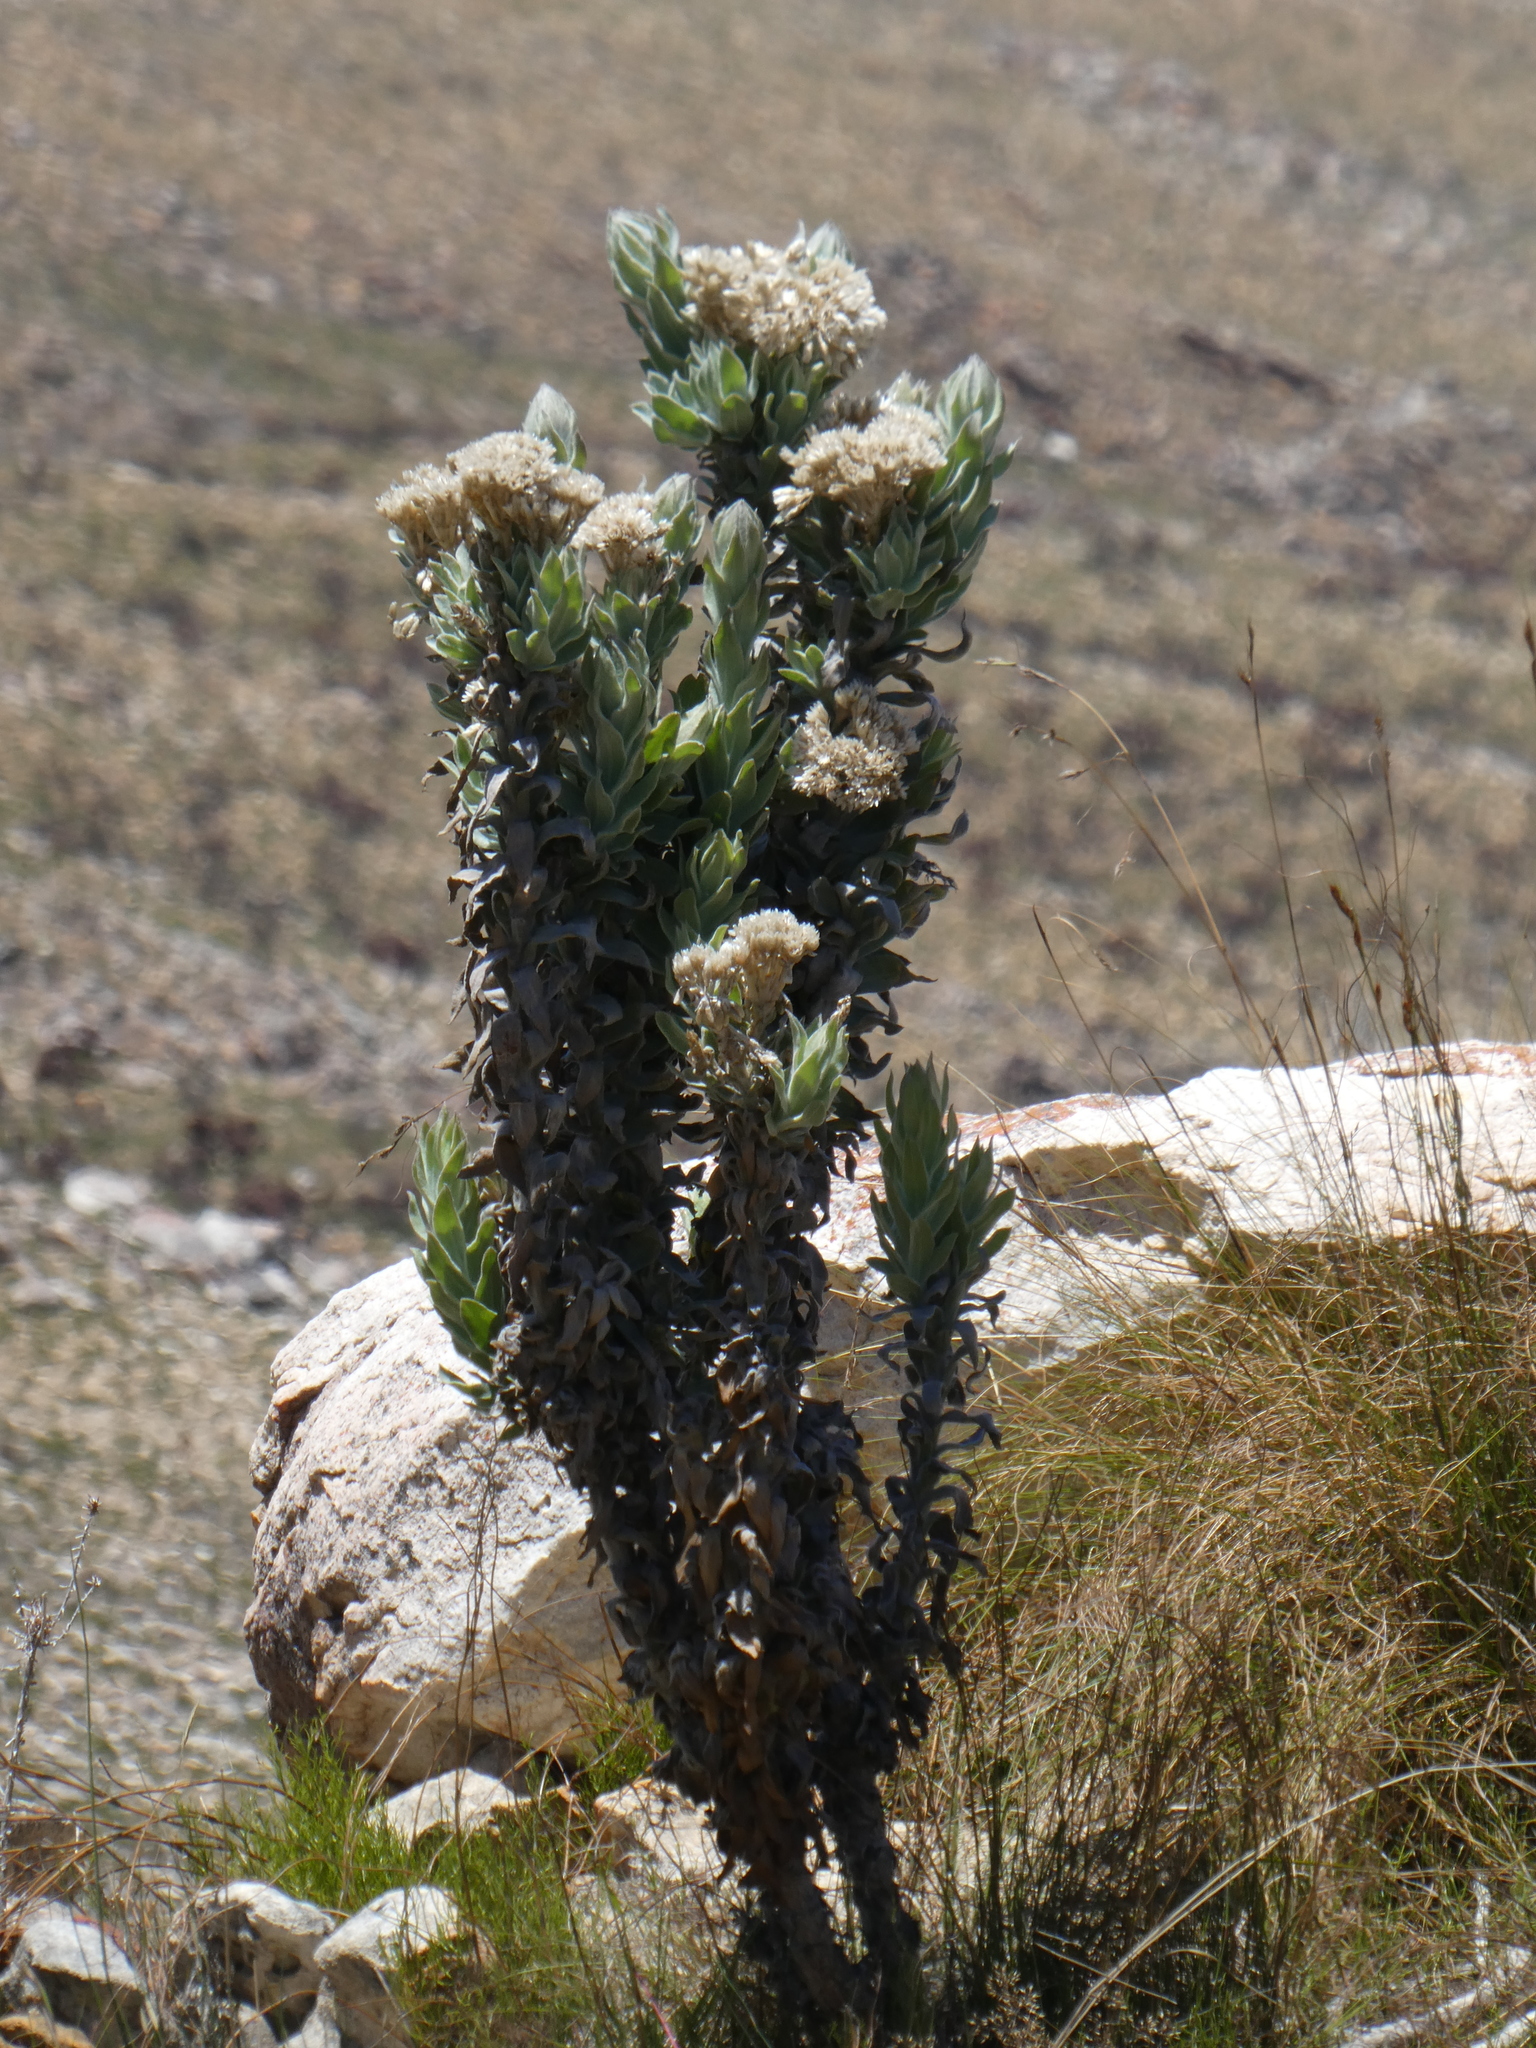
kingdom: Plantae
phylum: Tracheophyta
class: Magnoliopsida
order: Asterales
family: Asteraceae
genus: Syncarpha
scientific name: Syncarpha milleflora
